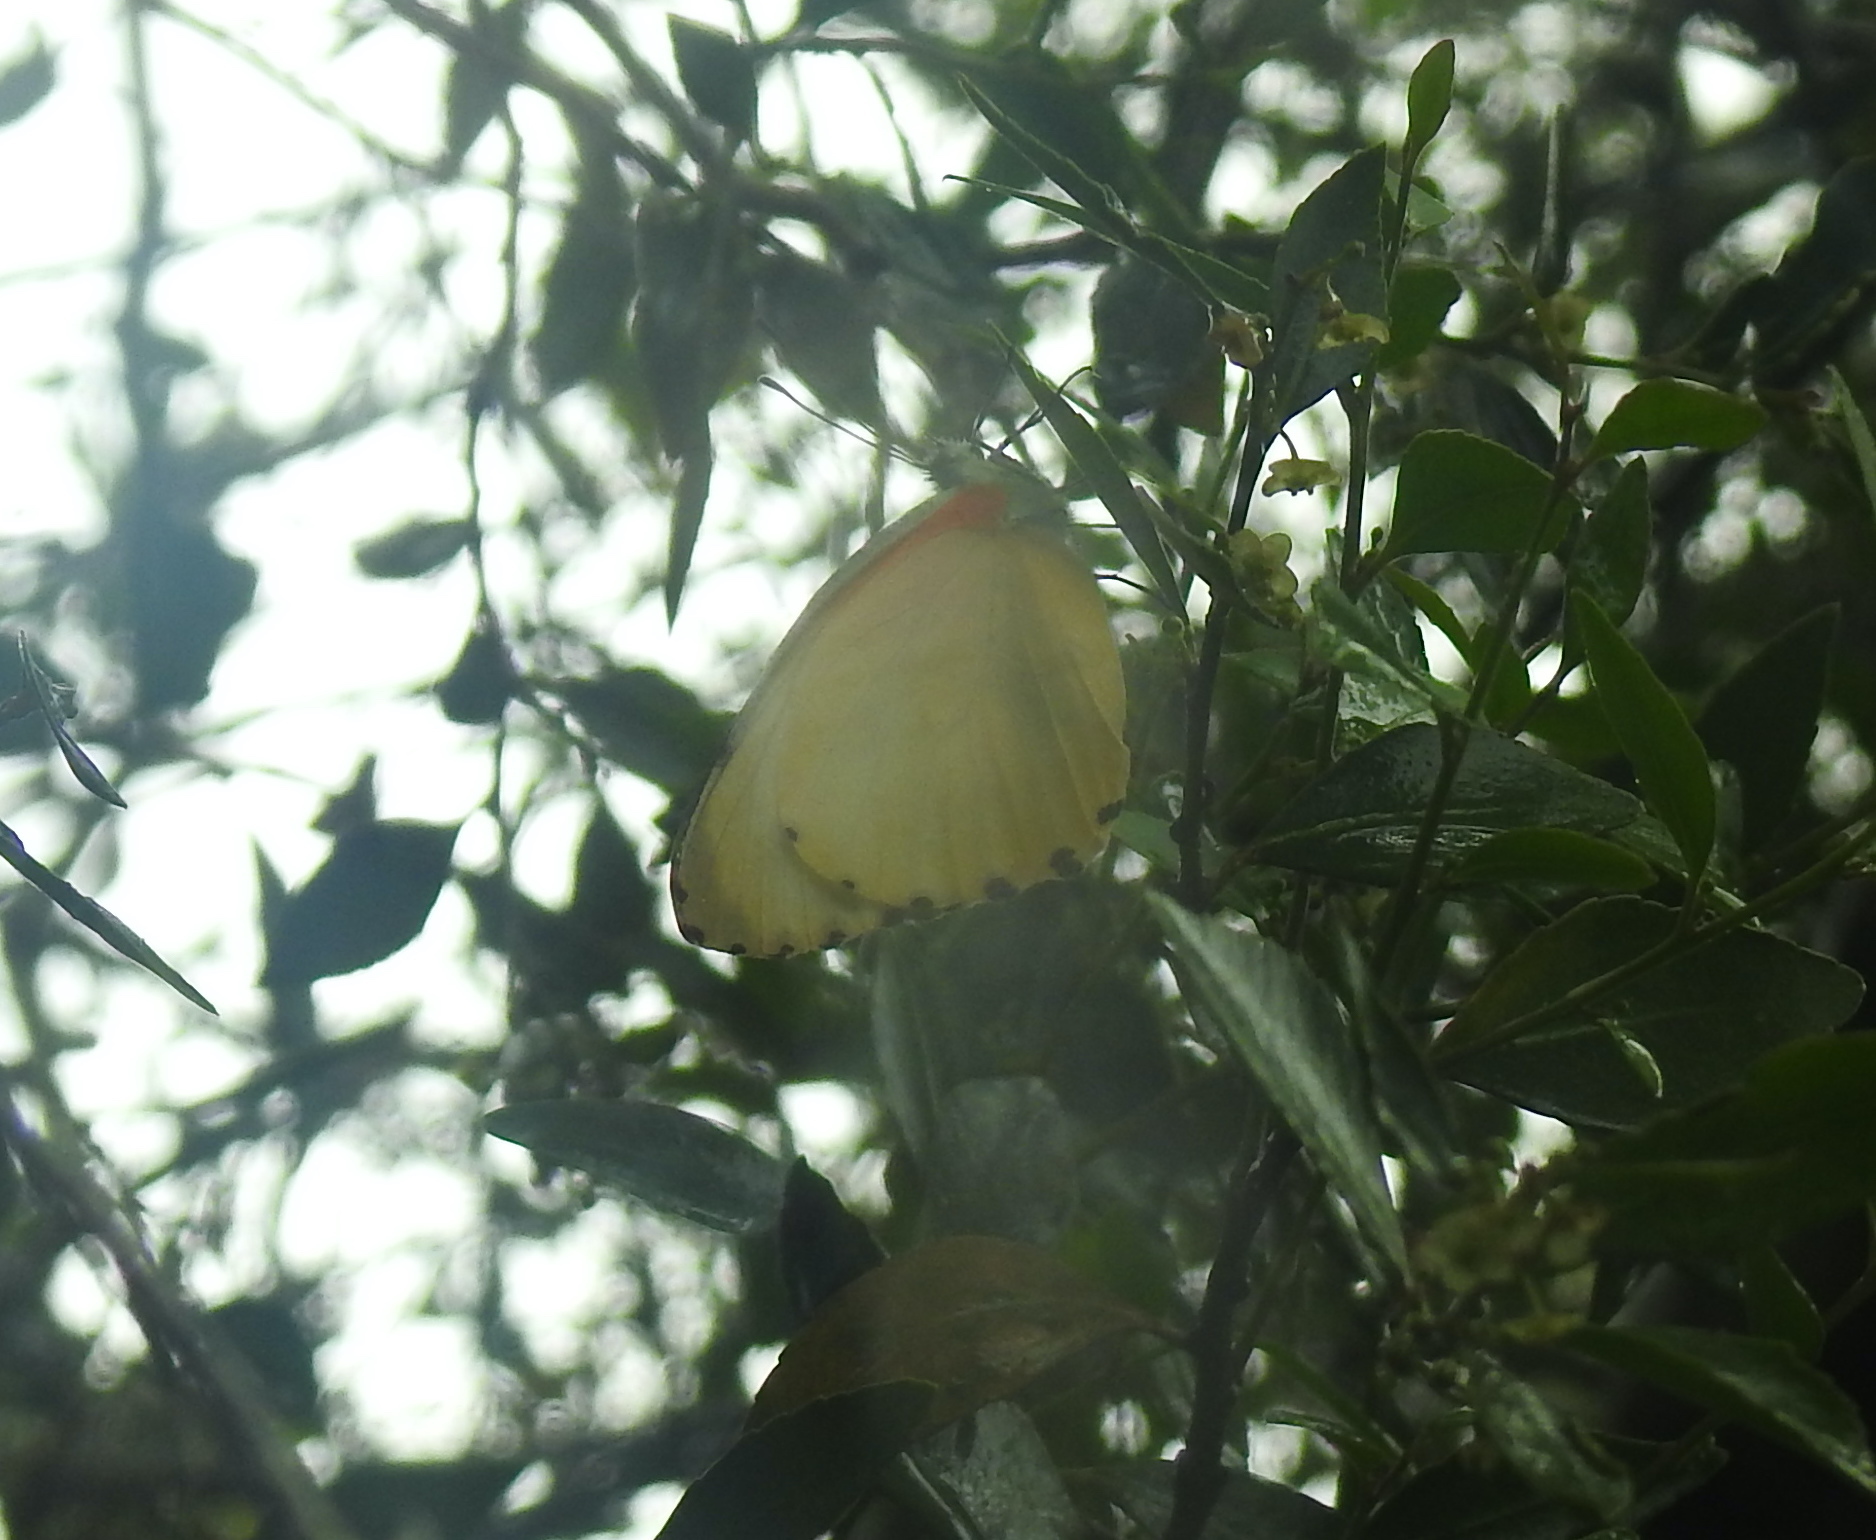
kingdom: Animalia
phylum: Arthropoda
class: Insecta
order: Lepidoptera
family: Pieridae
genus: Mylothris
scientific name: Mylothris agathina
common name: Eastern dotted border
